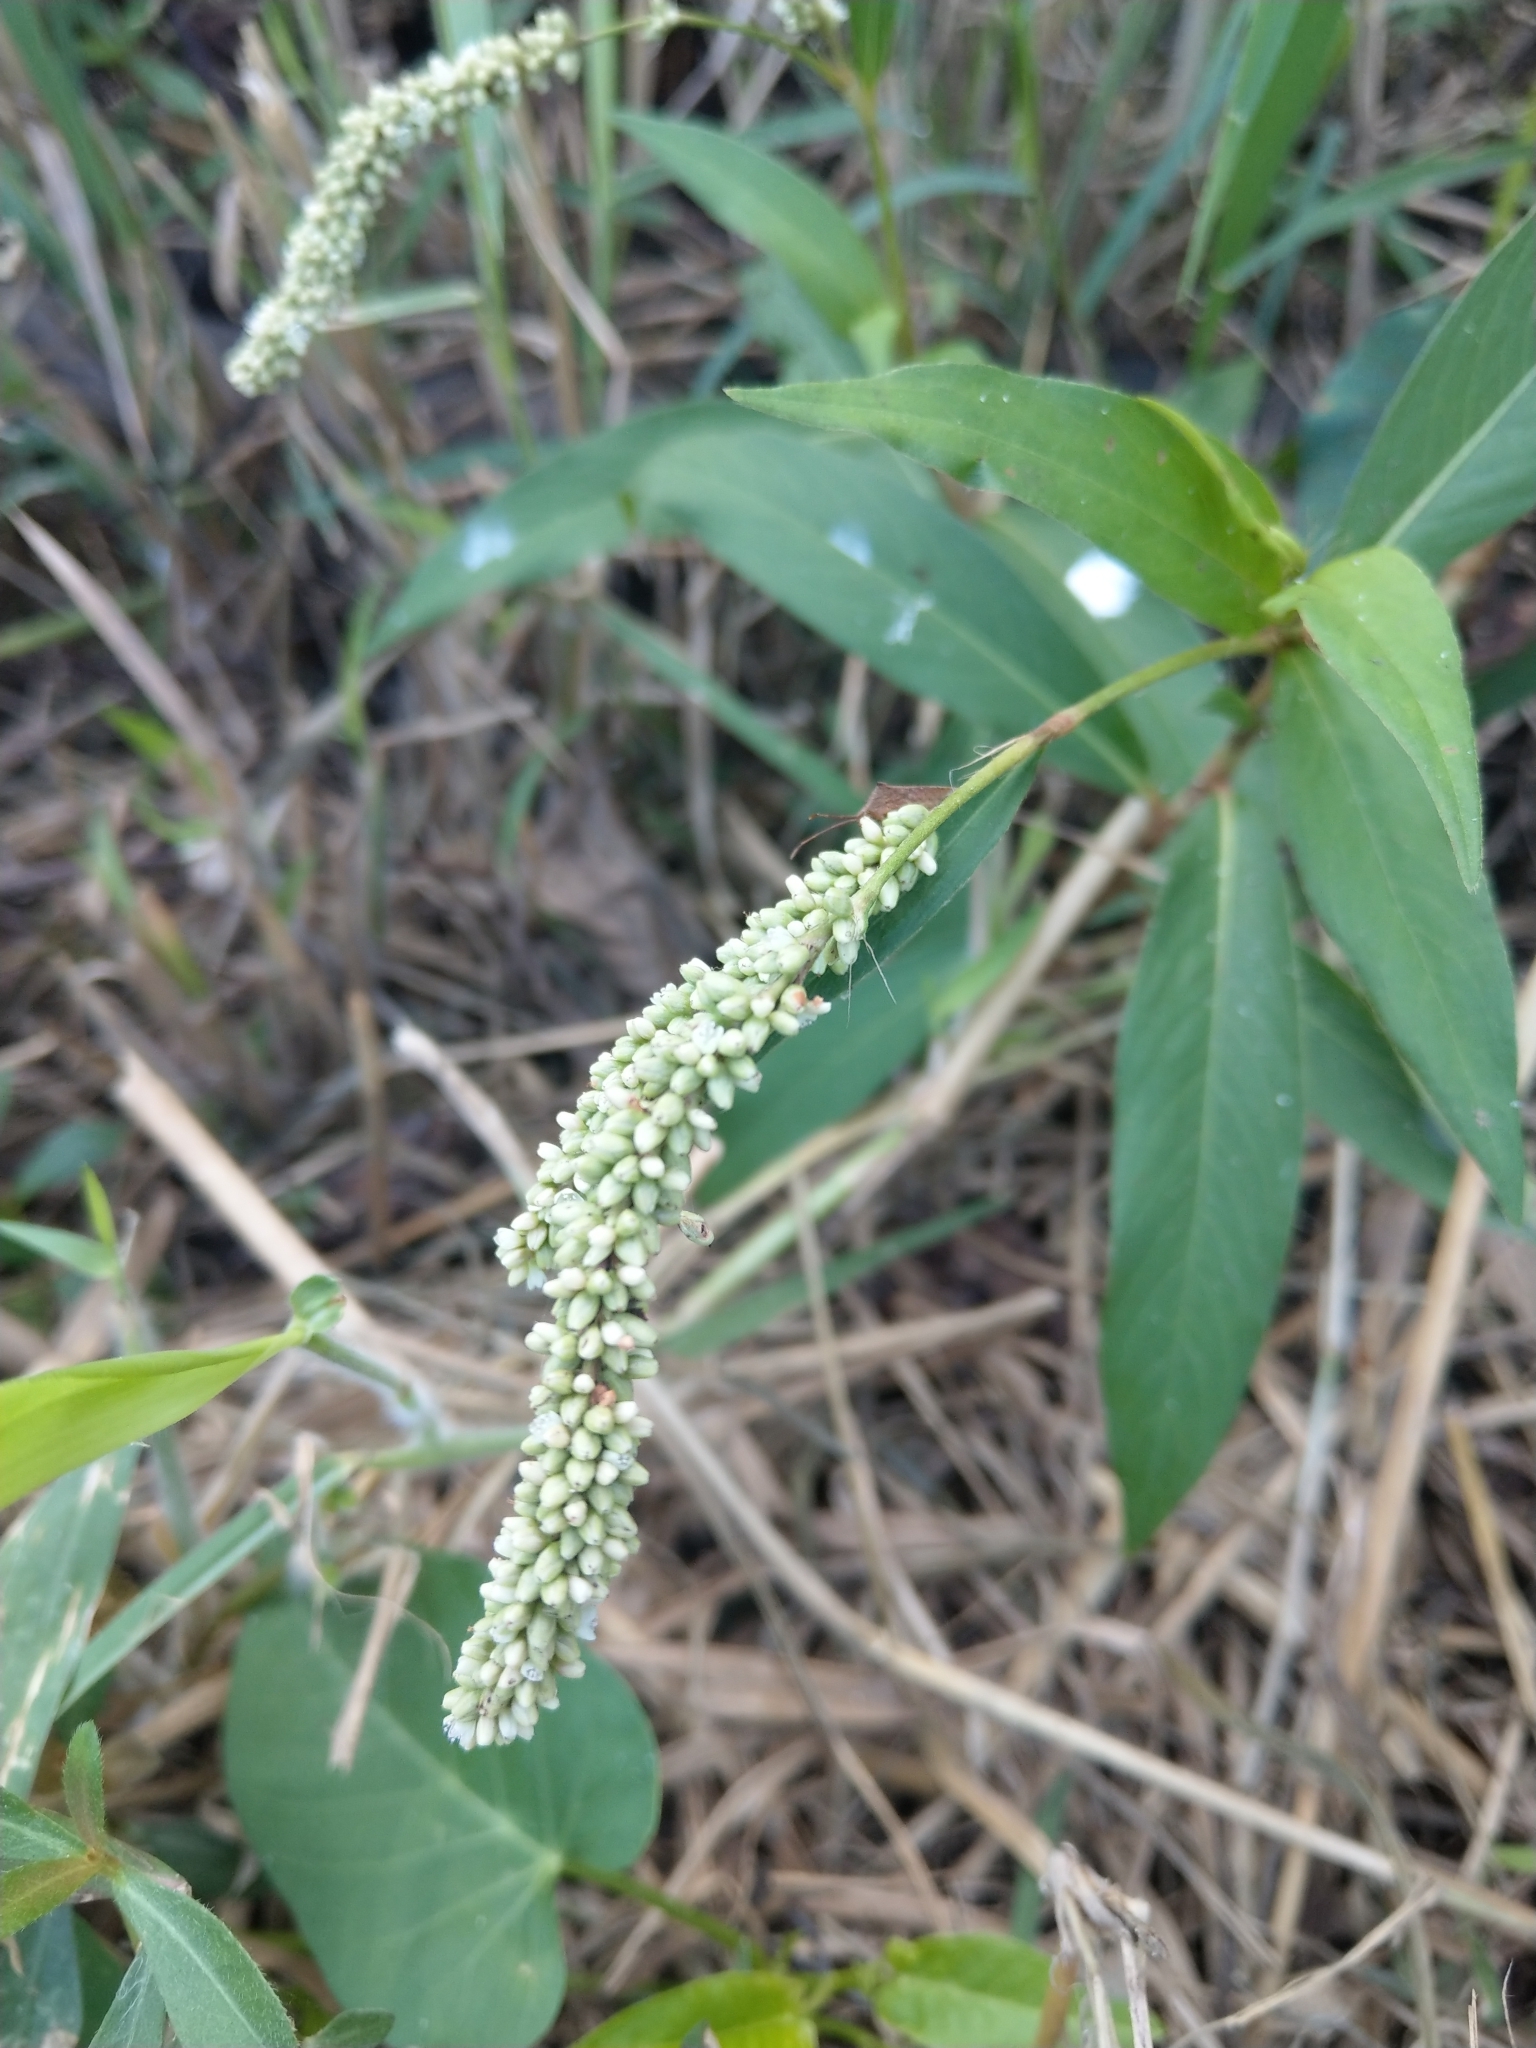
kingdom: Plantae
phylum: Tracheophyta
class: Magnoliopsida
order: Caryophyllales
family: Polygonaceae
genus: Persicaria
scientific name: Persicaria barbata
